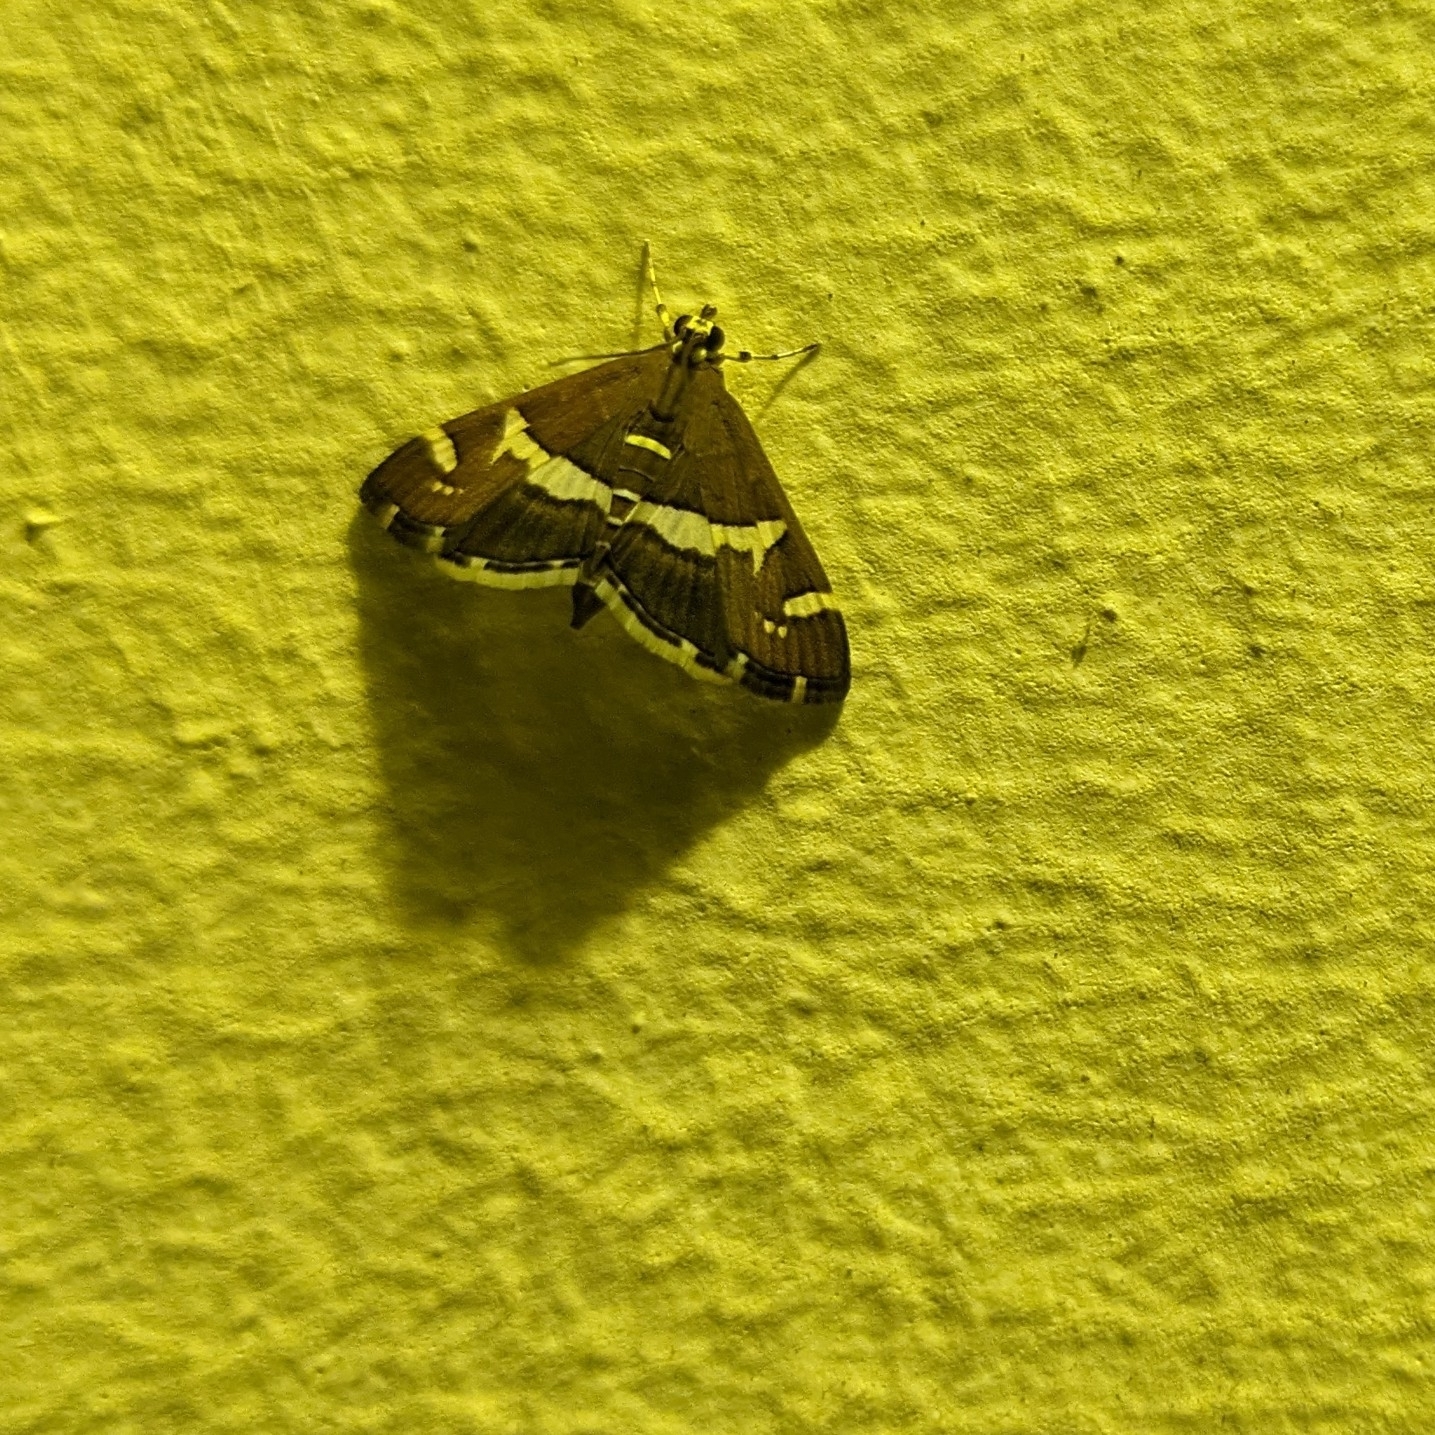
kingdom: Animalia
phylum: Arthropoda
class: Insecta
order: Lepidoptera
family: Crambidae
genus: Spoladea
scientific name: Spoladea recurvalis
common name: Beet webworm moth
